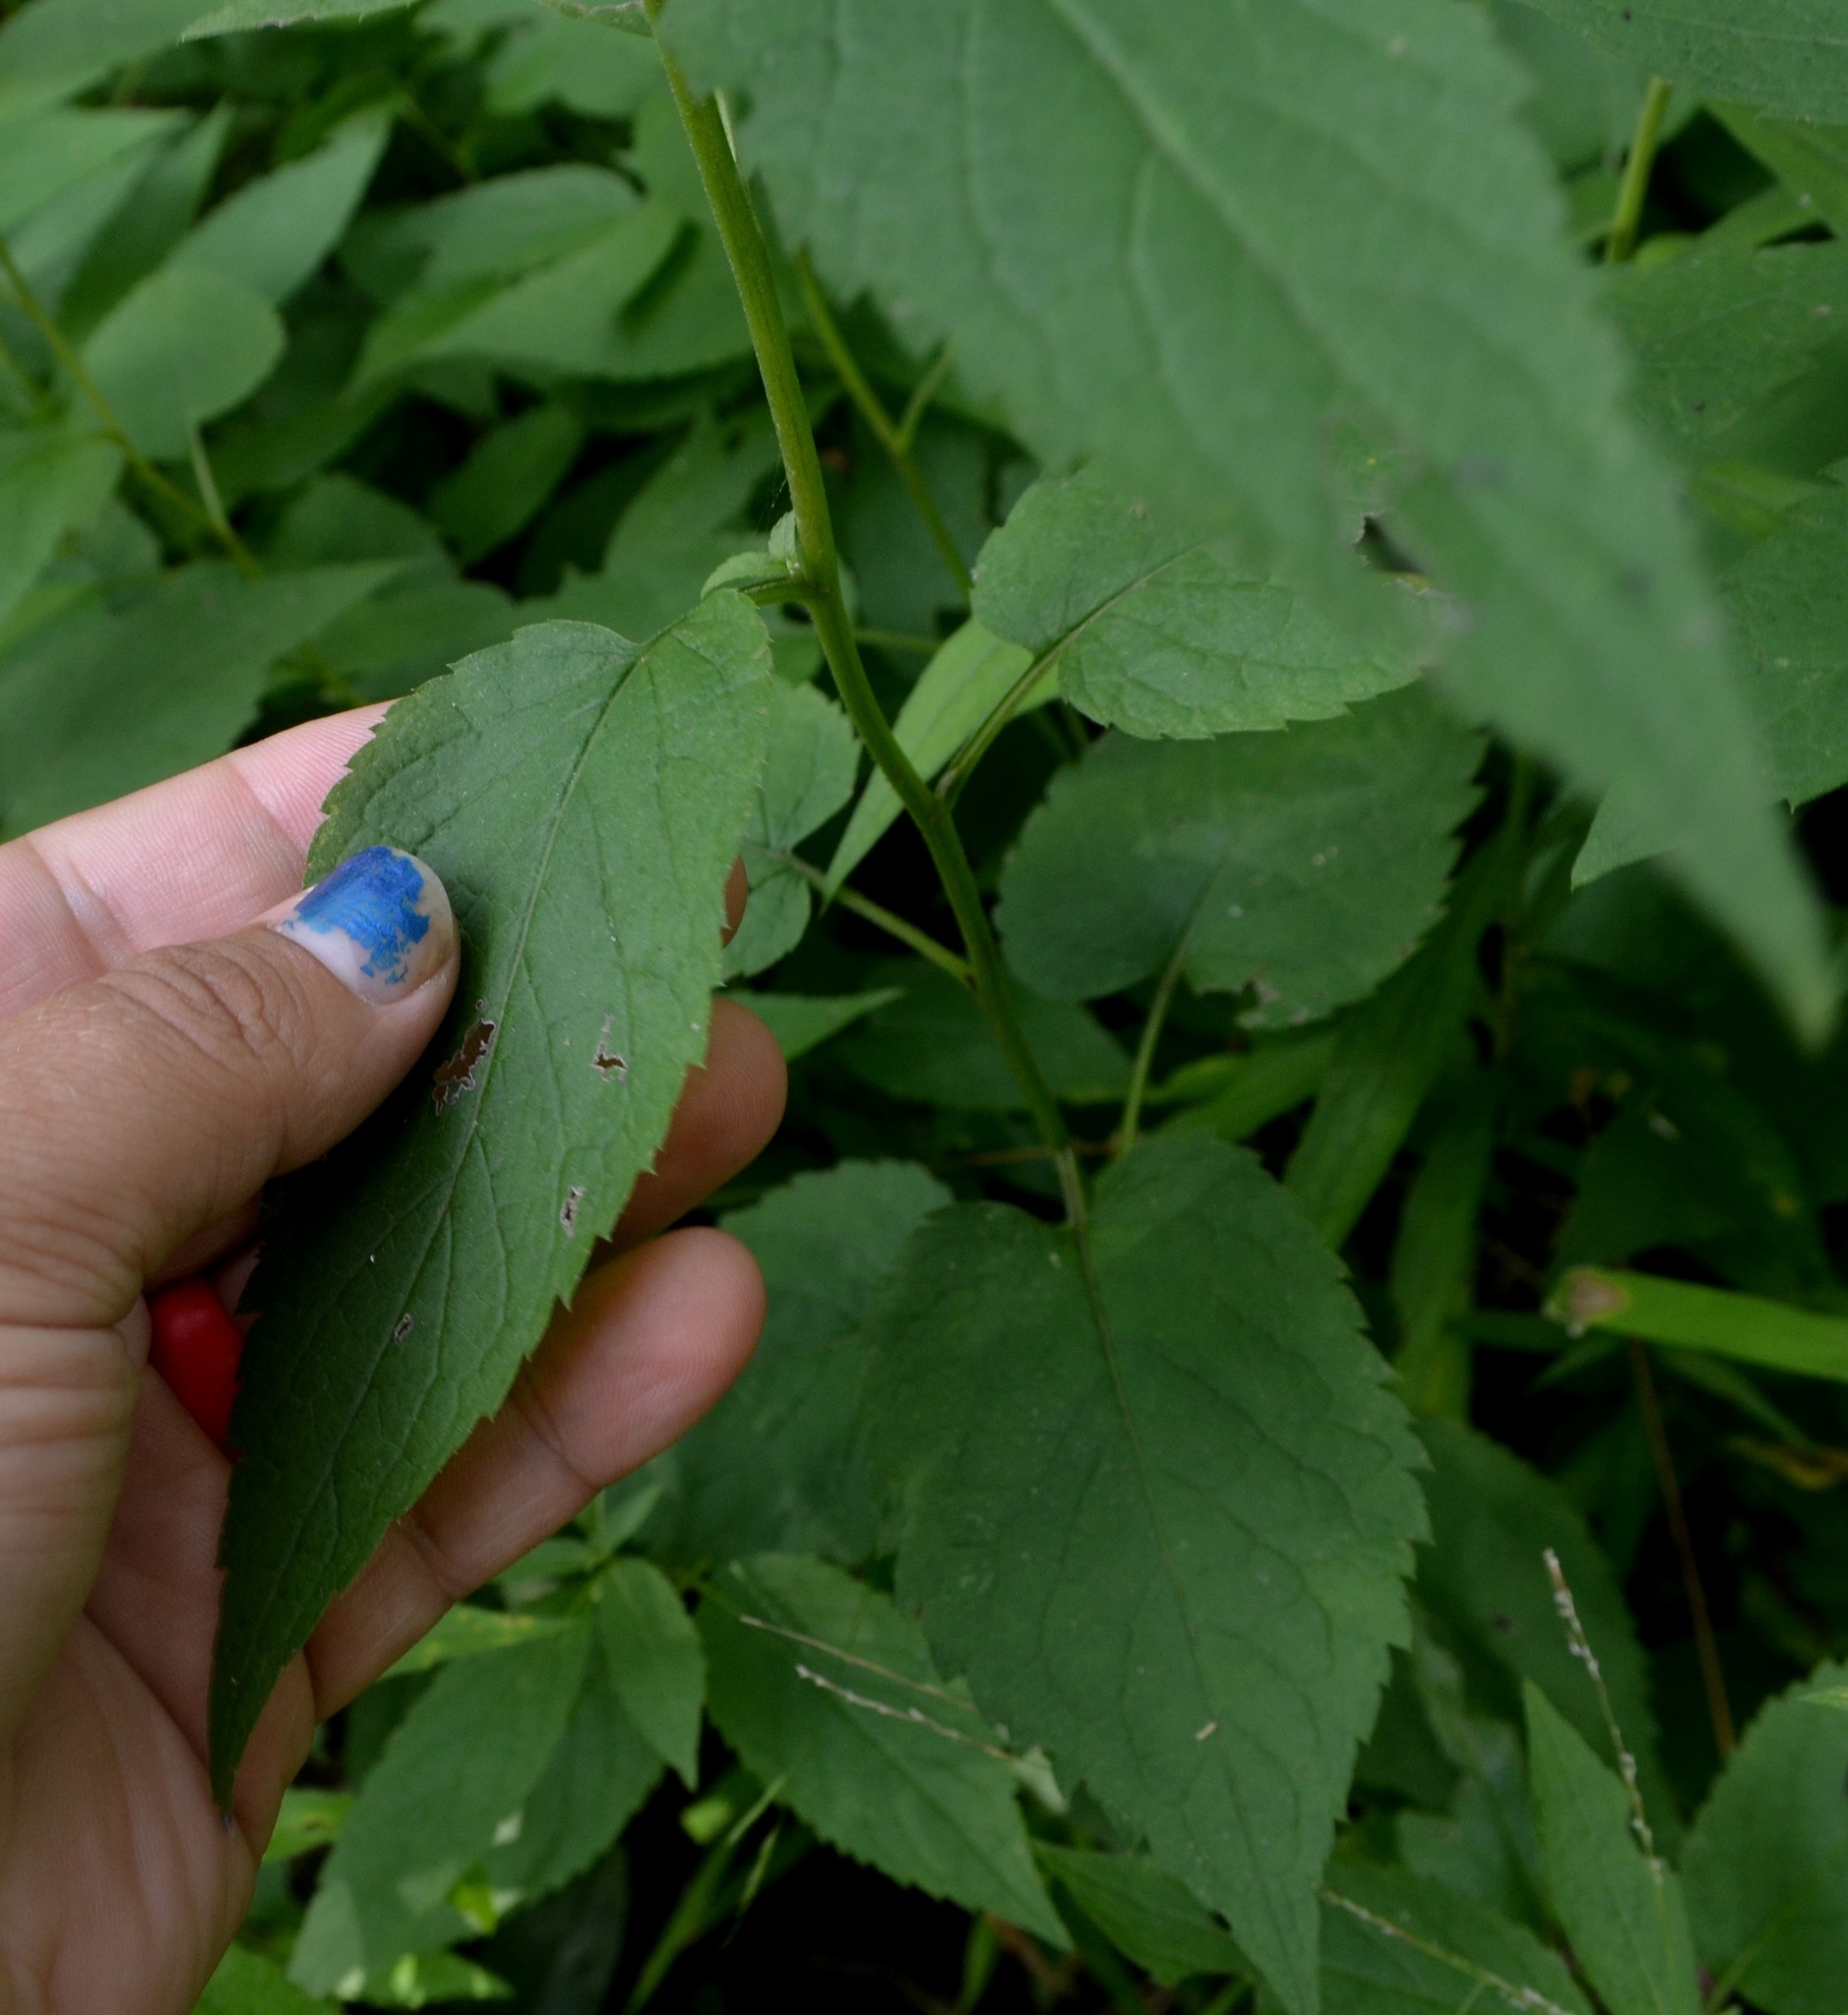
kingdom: Plantae
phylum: Tracheophyta
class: Magnoliopsida
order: Asterales
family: Asteraceae
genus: Eurybia
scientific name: Eurybia furcata
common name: Forked aster
